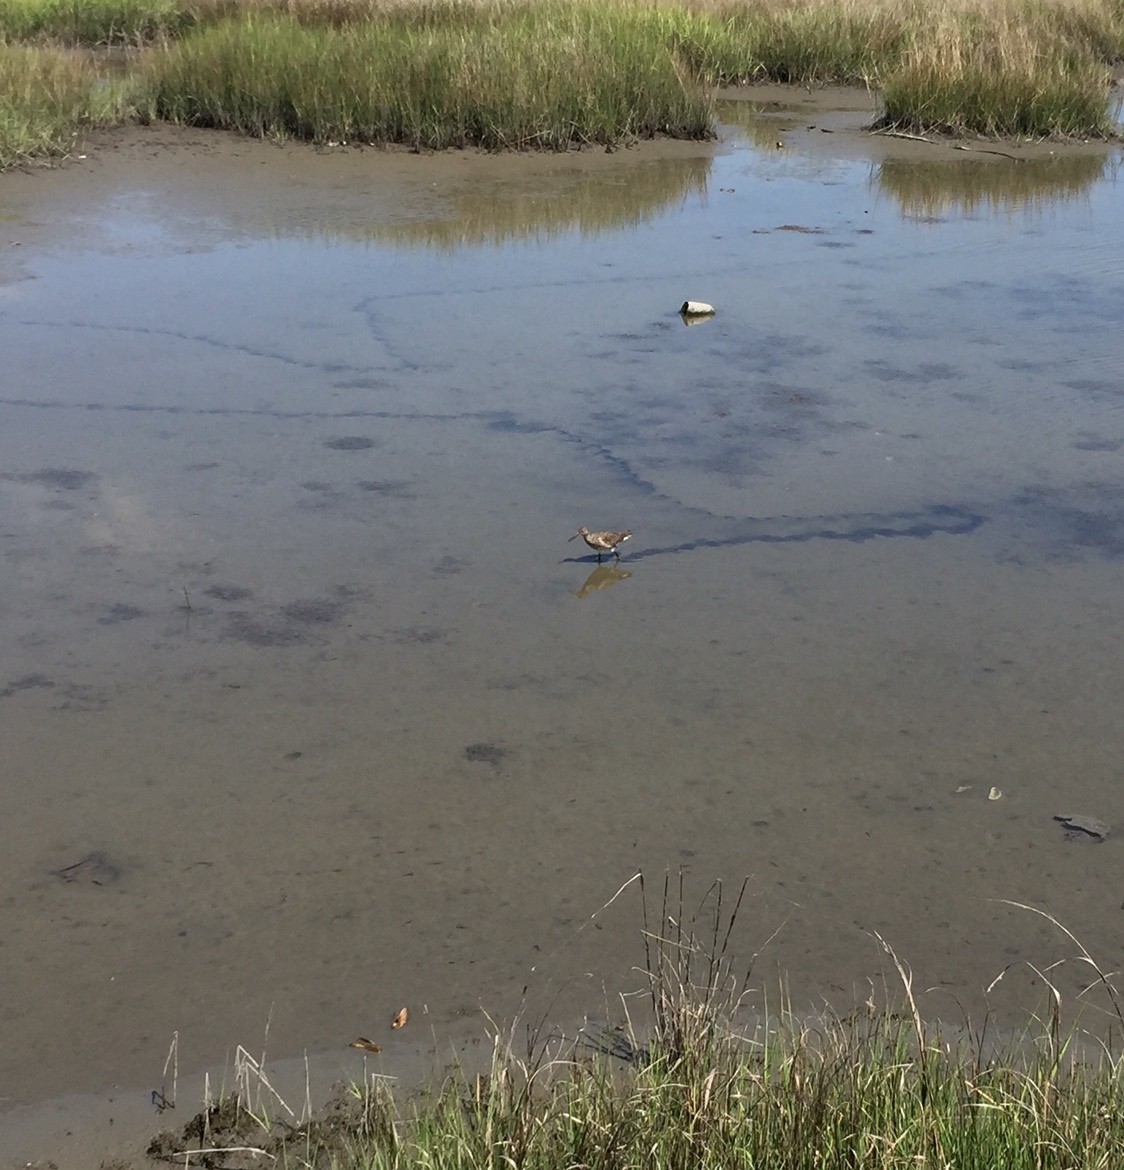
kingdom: Animalia
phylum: Chordata
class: Aves
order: Charadriiformes
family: Scolopacidae
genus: Tringa
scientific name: Tringa semipalmata
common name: Willet
